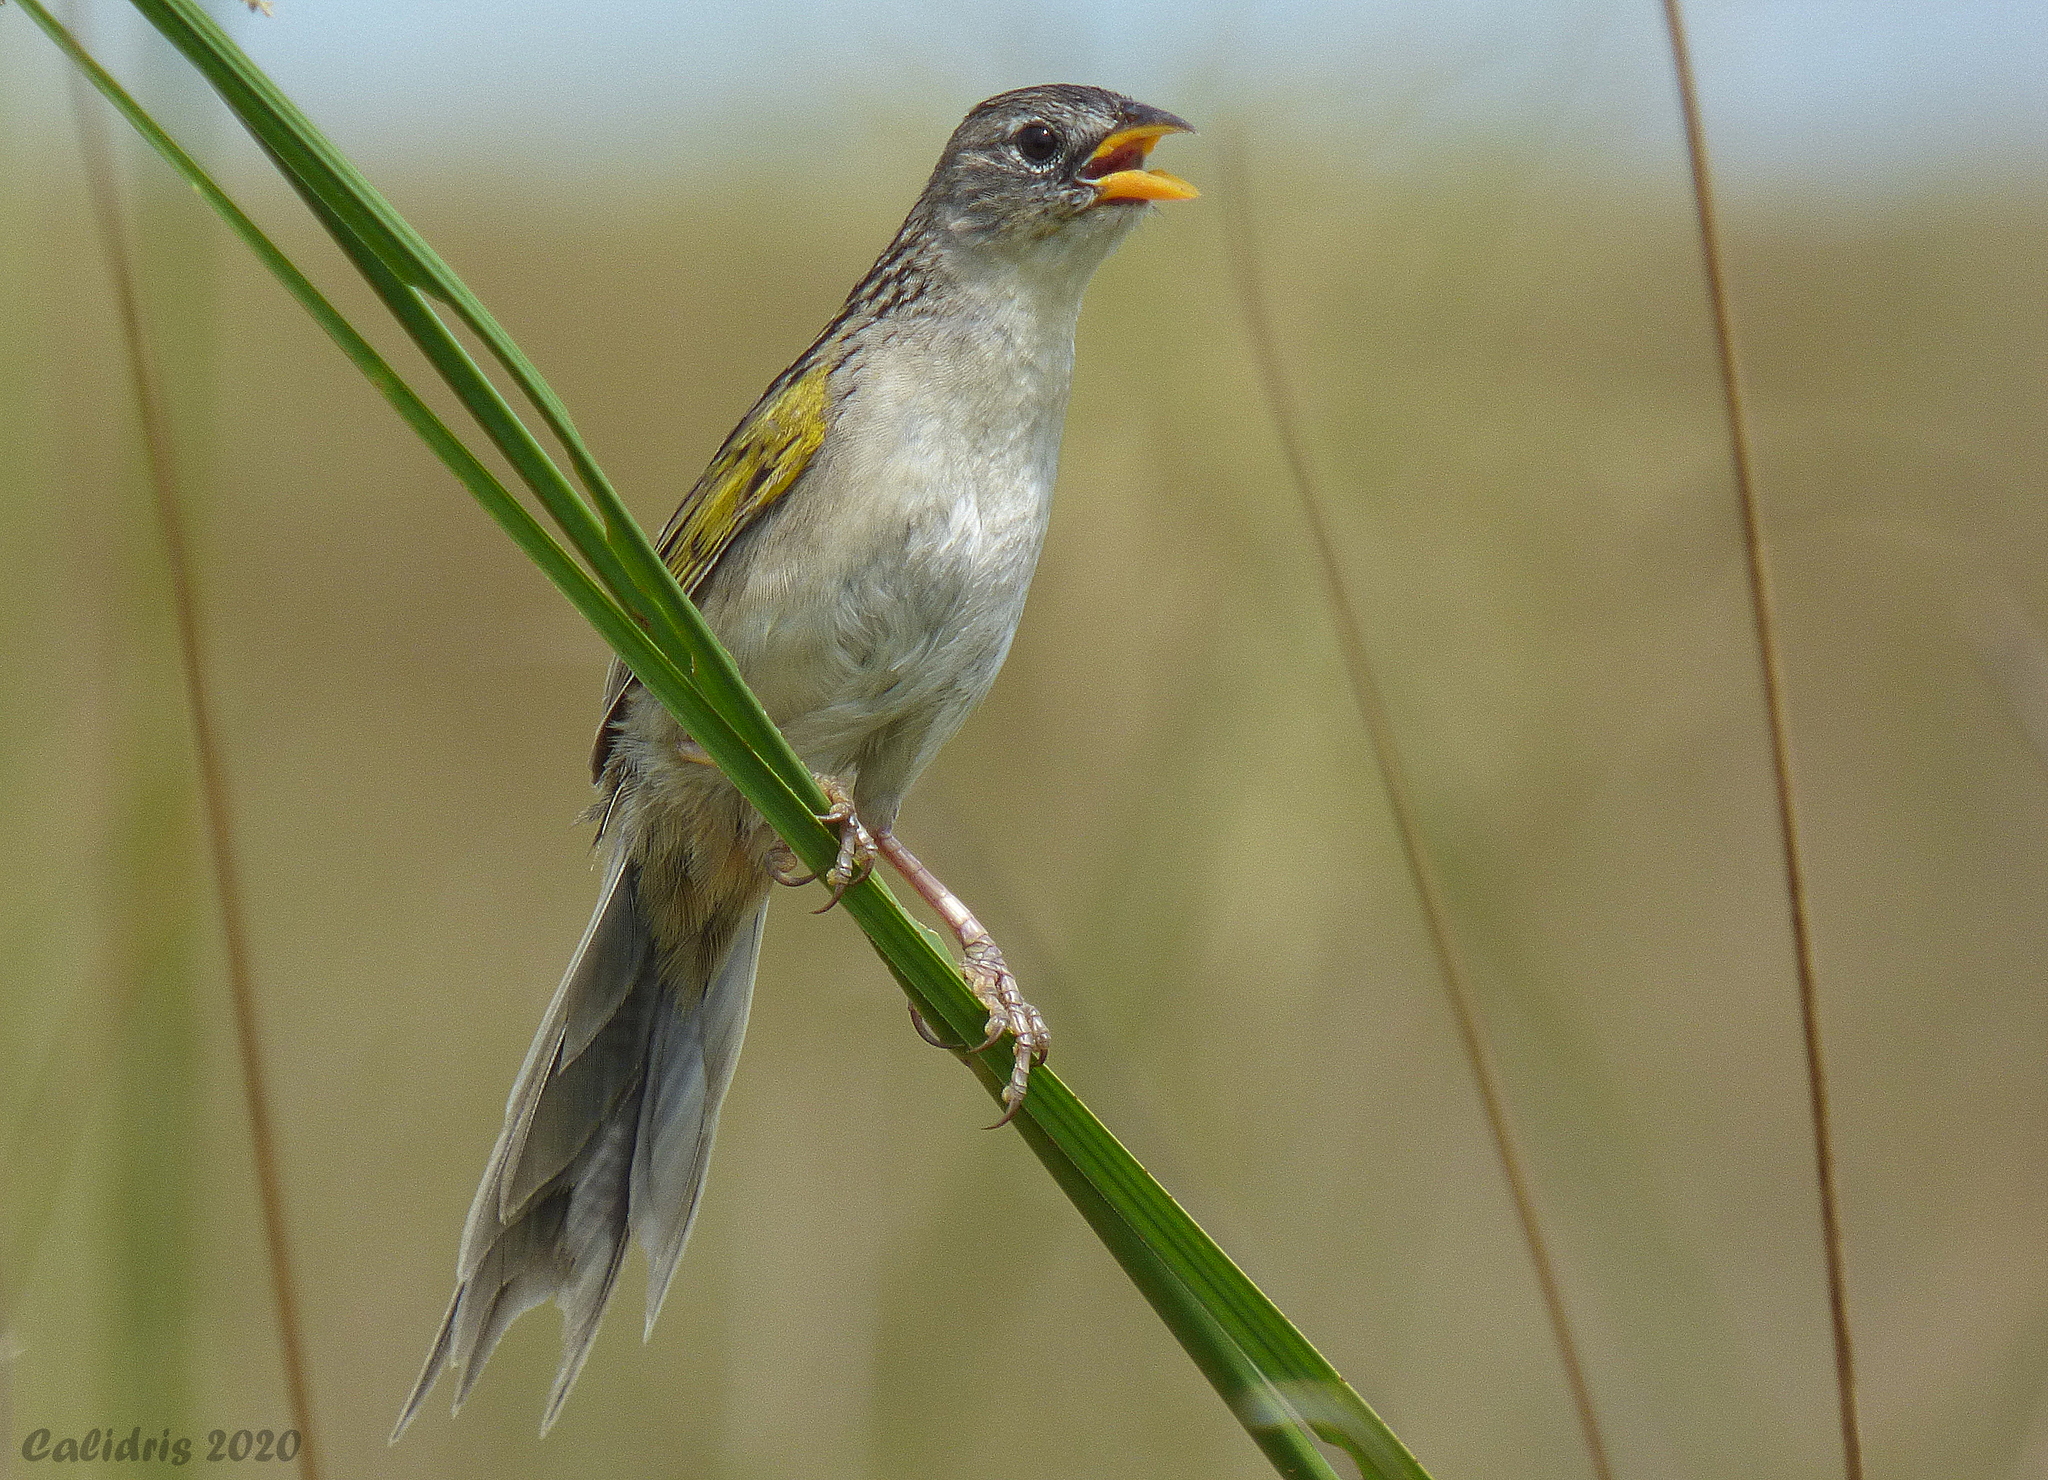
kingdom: Animalia
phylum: Chordata
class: Aves
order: Passeriformes
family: Thraupidae
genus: Emberizoides
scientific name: Emberizoides ypiranganus
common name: Lesser grass finch
